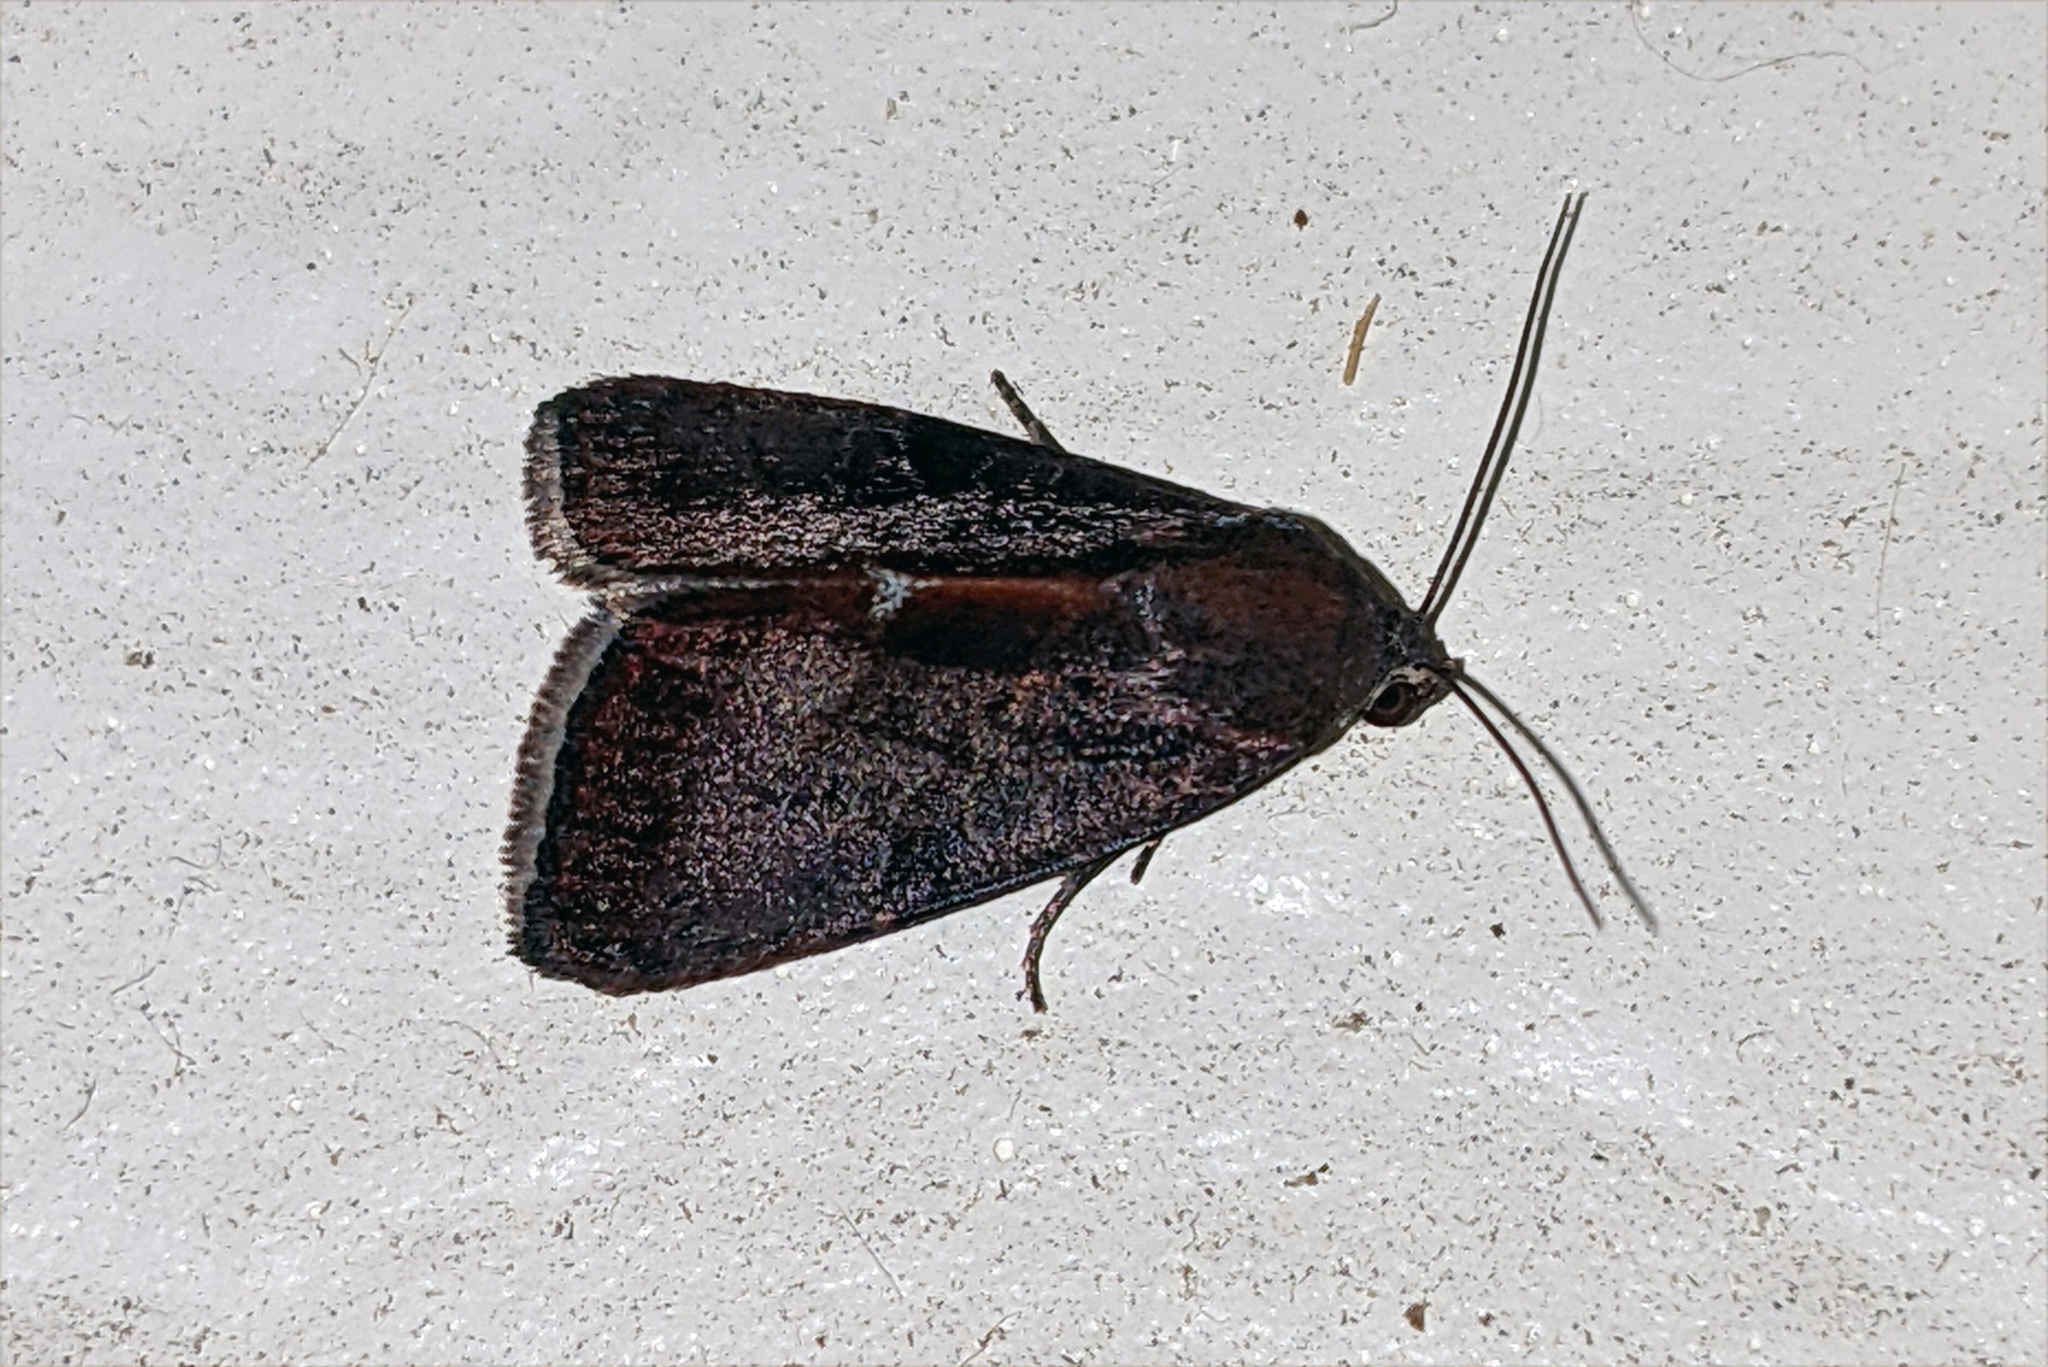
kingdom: Animalia
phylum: Arthropoda
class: Insecta
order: Lepidoptera
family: Noctuidae
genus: Galgula
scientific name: Galgula partita
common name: Wedgeling
